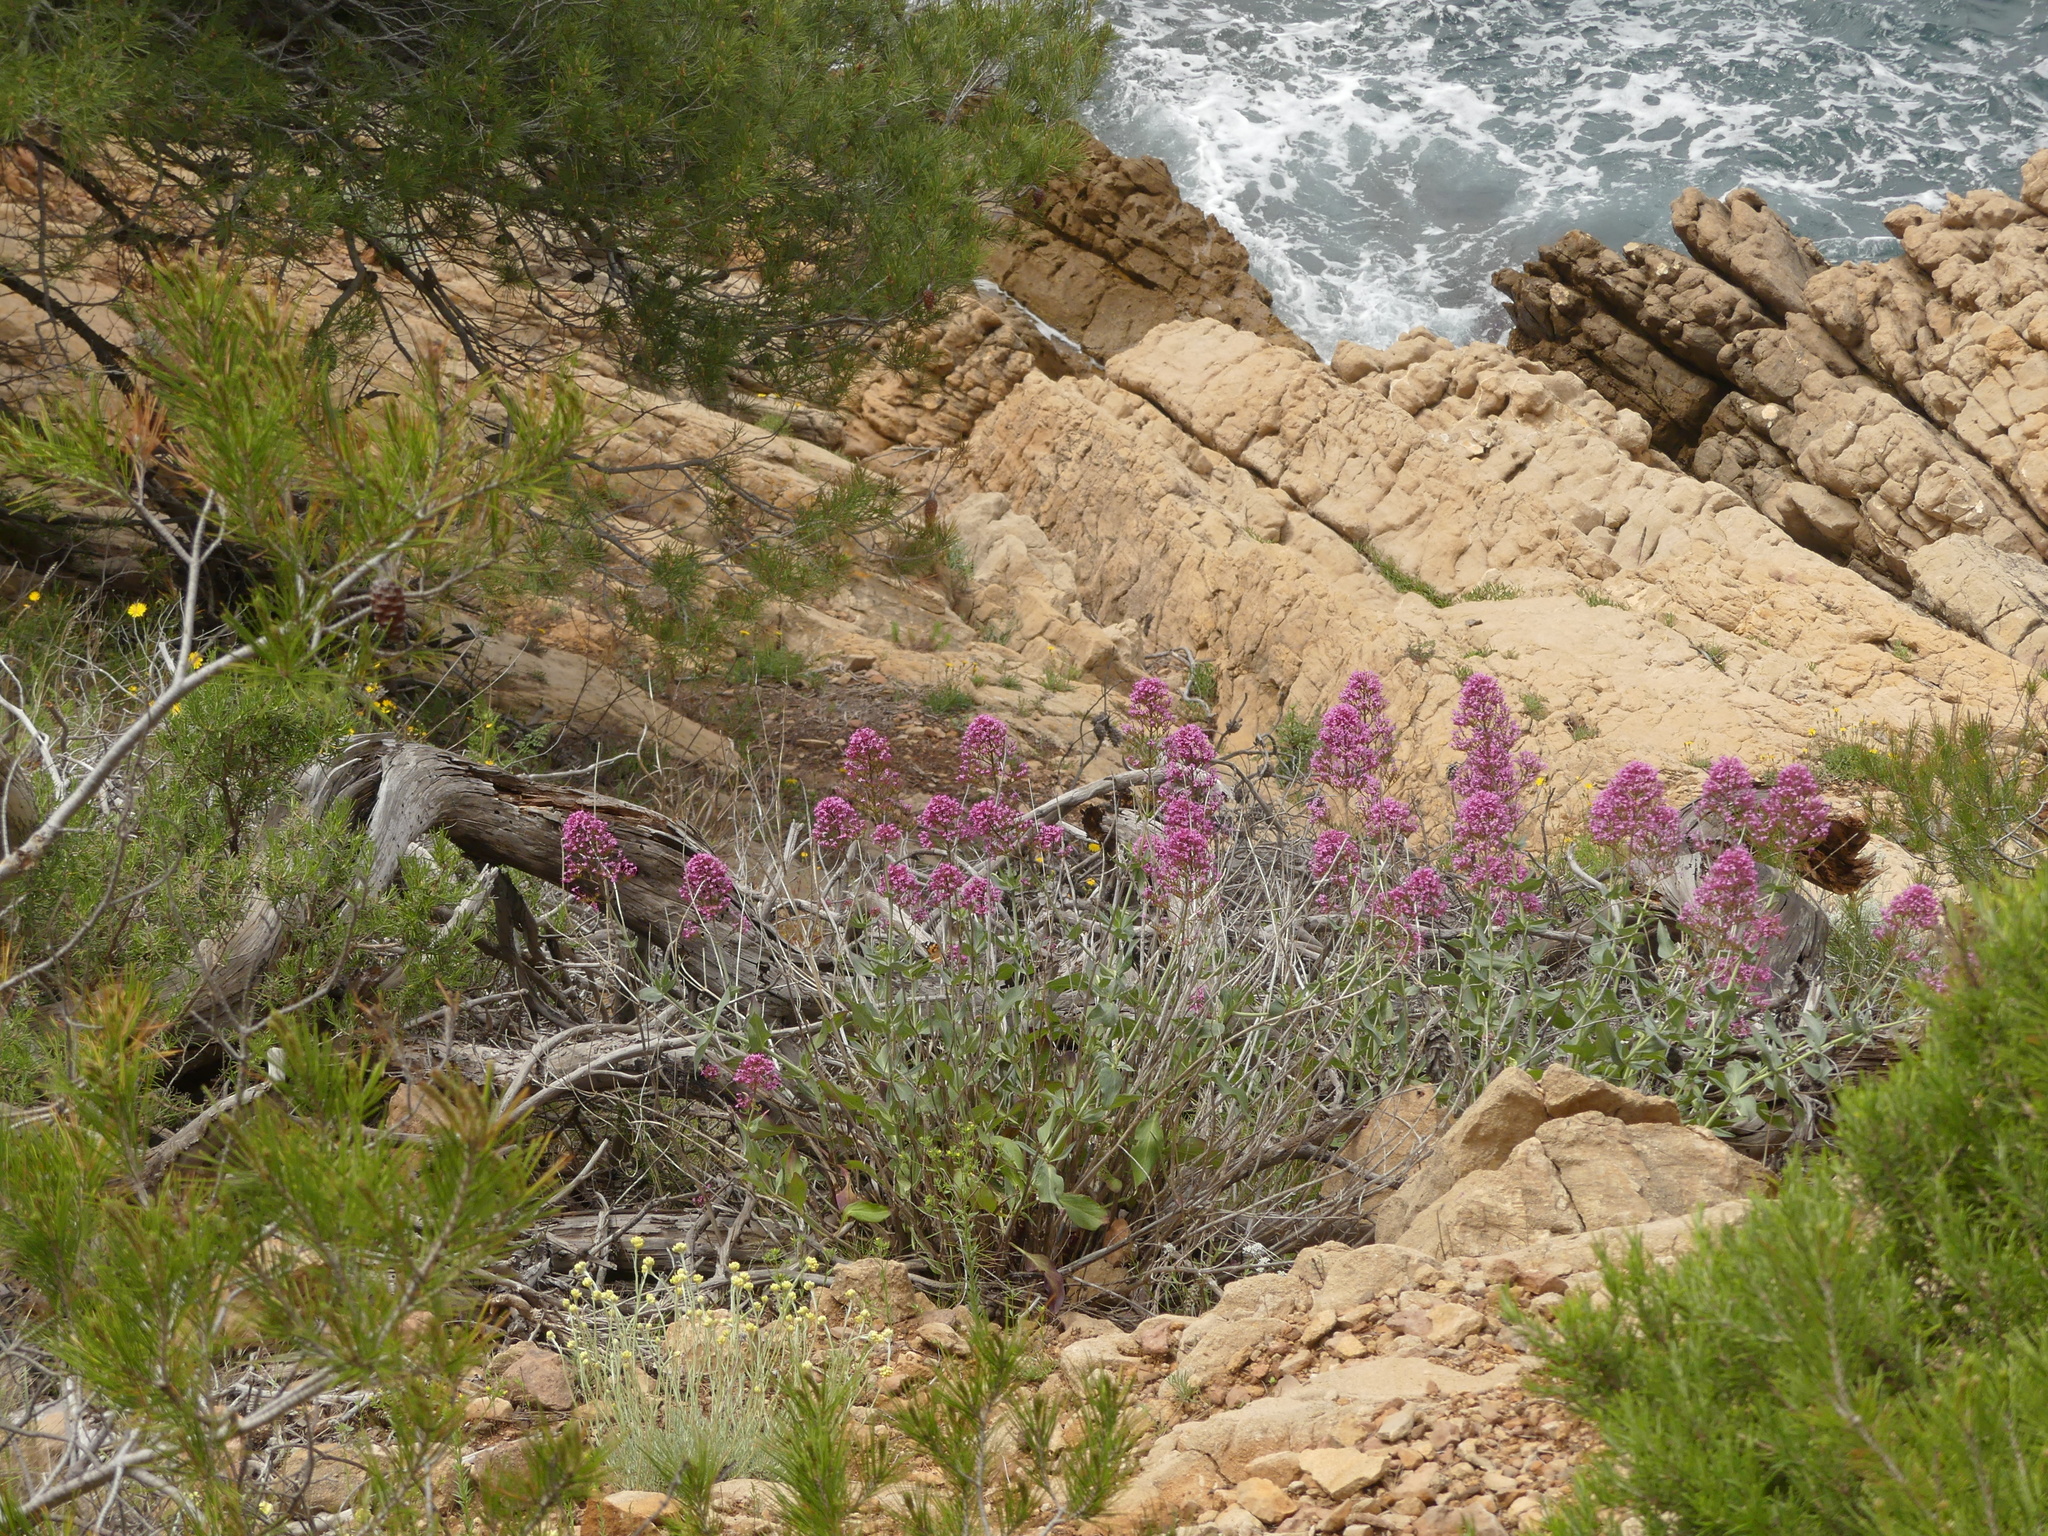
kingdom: Plantae
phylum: Tracheophyta
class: Magnoliopsida
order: Dipsacales
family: Caprifoliaceae
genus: Centranthus
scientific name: Centranthus ruber
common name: Red valerian
